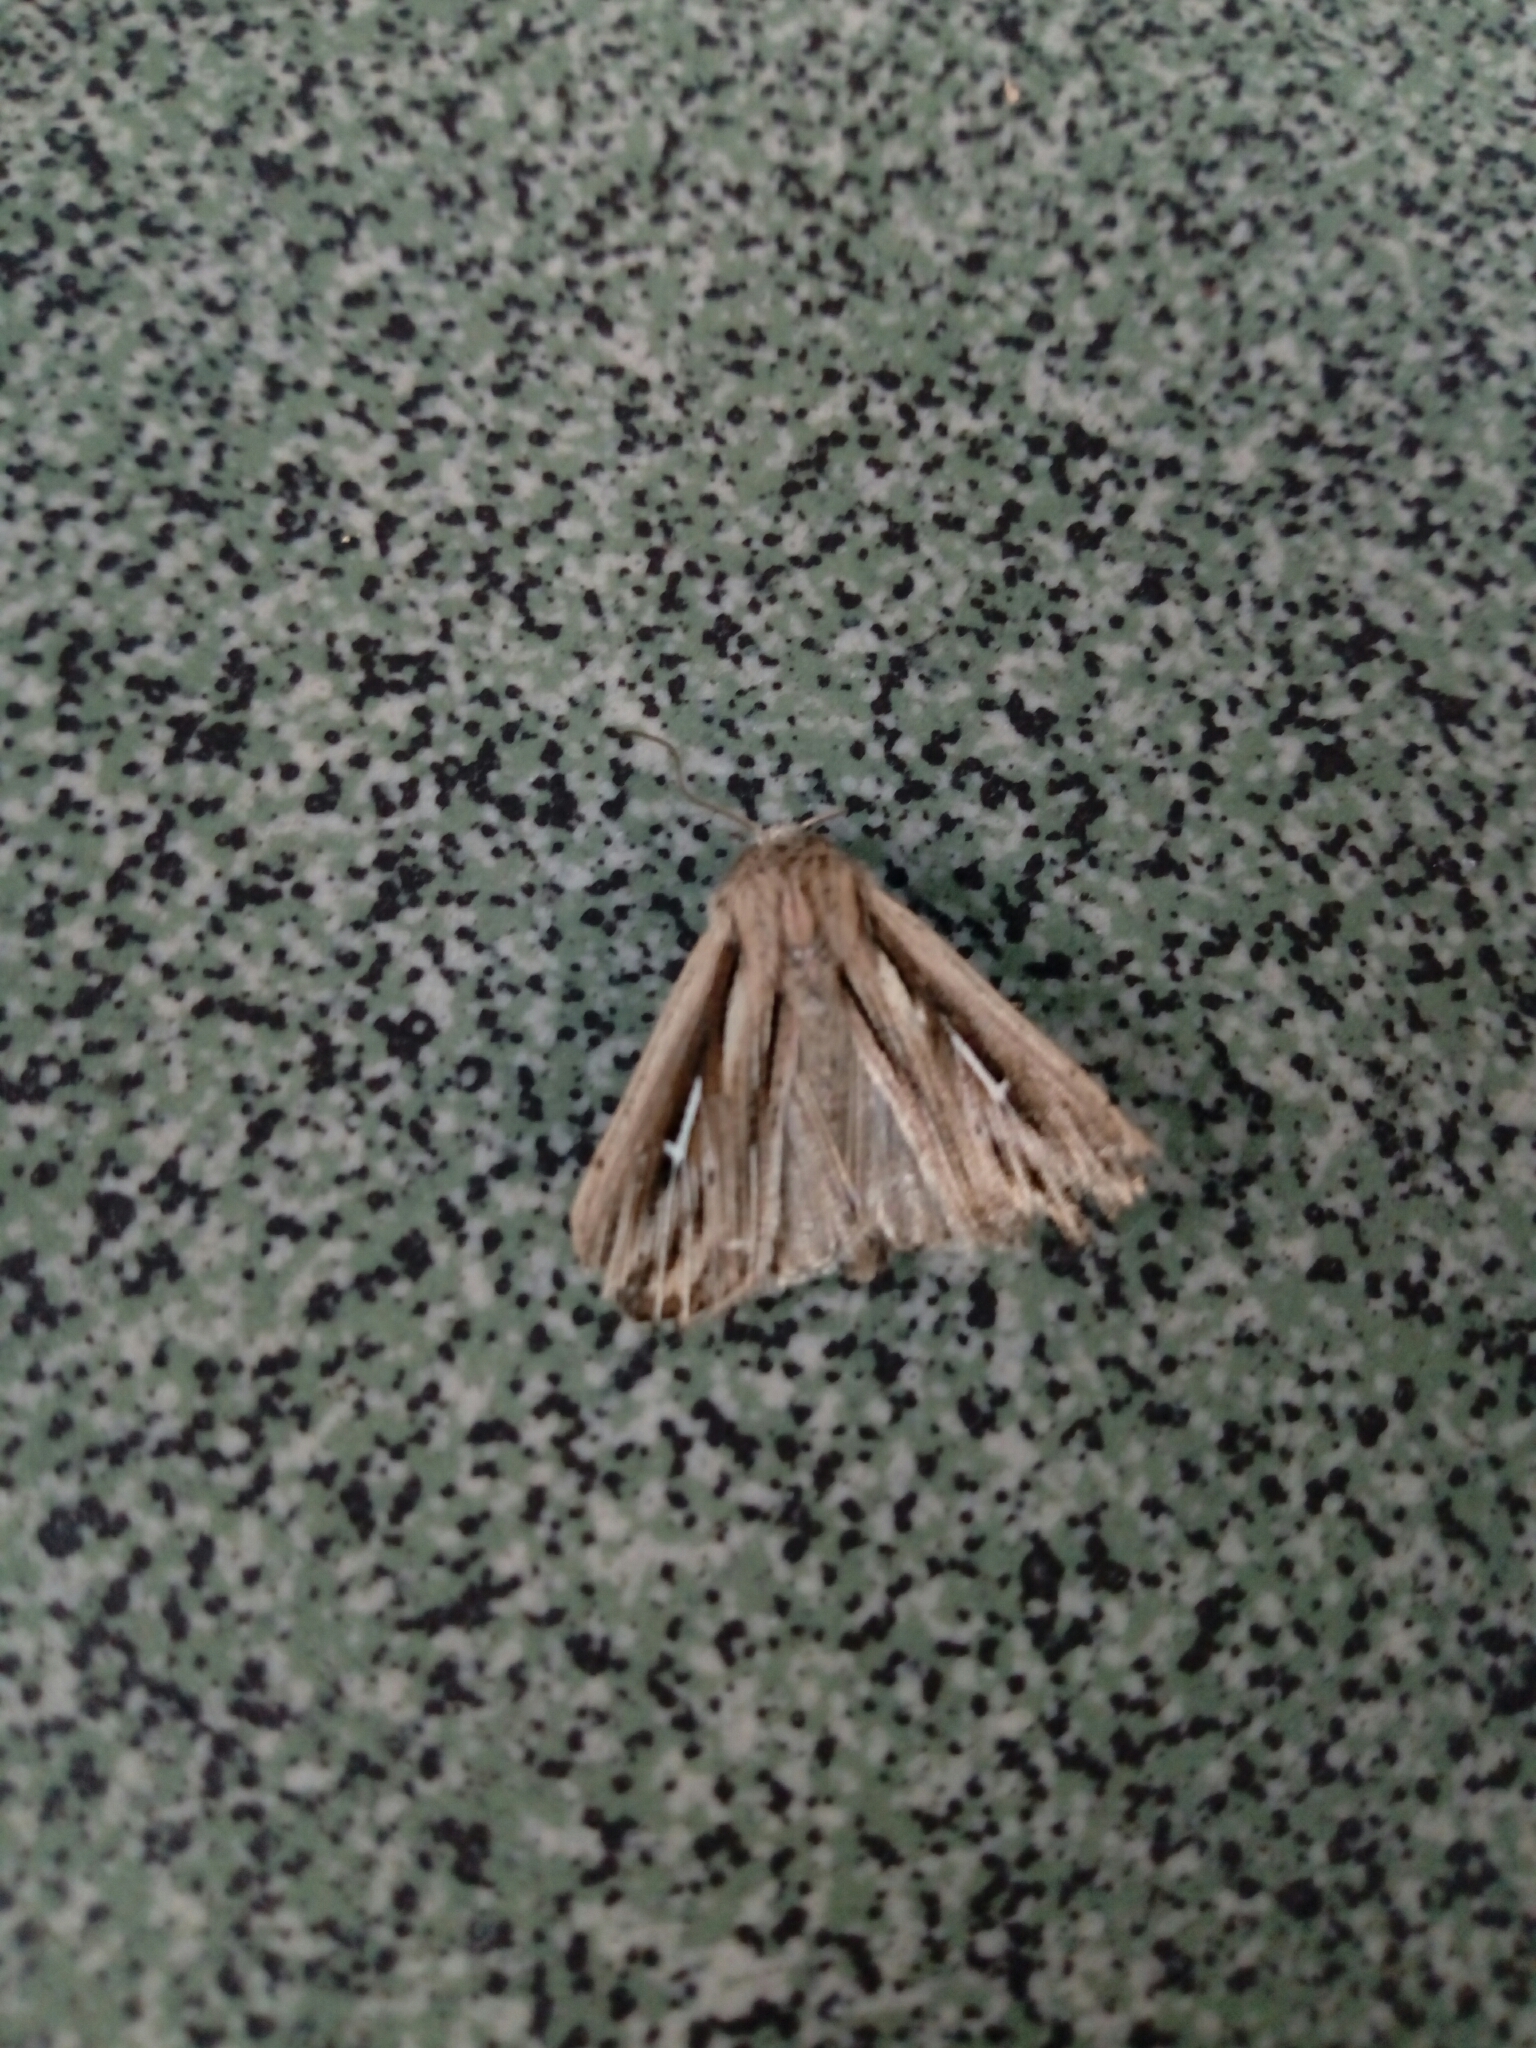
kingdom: Animalia
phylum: Arthropoda
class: Insecta
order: Lepidoptera
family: Noctuidae
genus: Mythimna
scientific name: Mythimna l-album
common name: L-album wainscot
